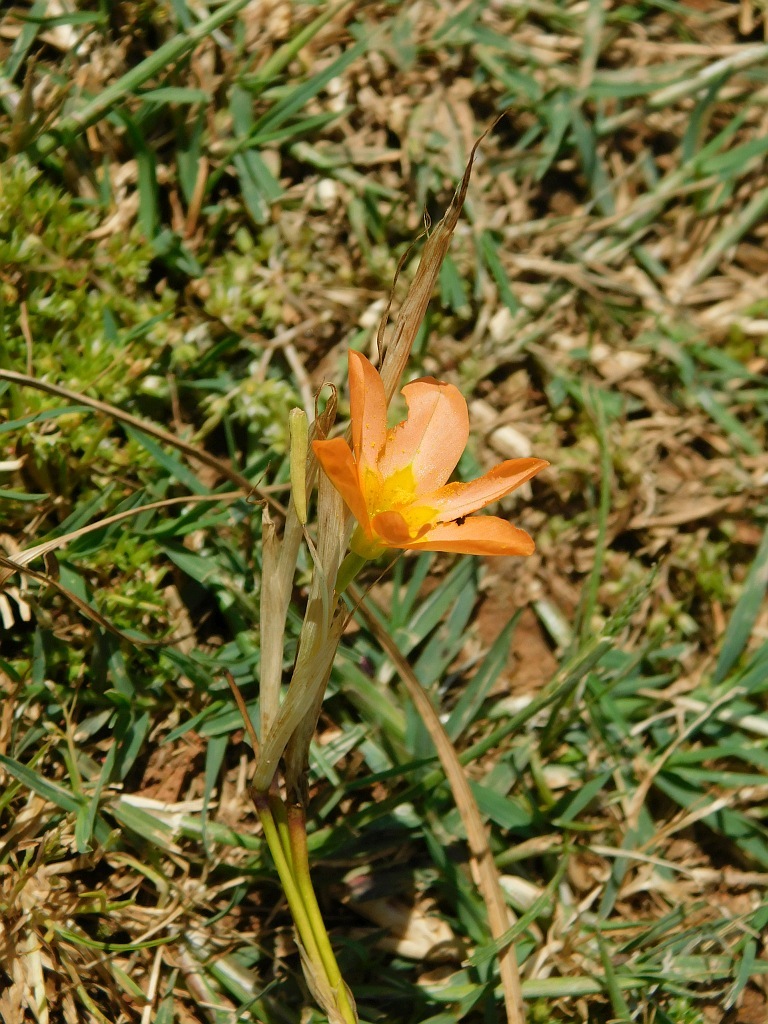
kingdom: Plantae
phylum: Tracheophyta
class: Liliopsida
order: Asparagales
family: Iridaceae
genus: Moraea
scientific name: Moraea collina
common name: Cape-tulip
